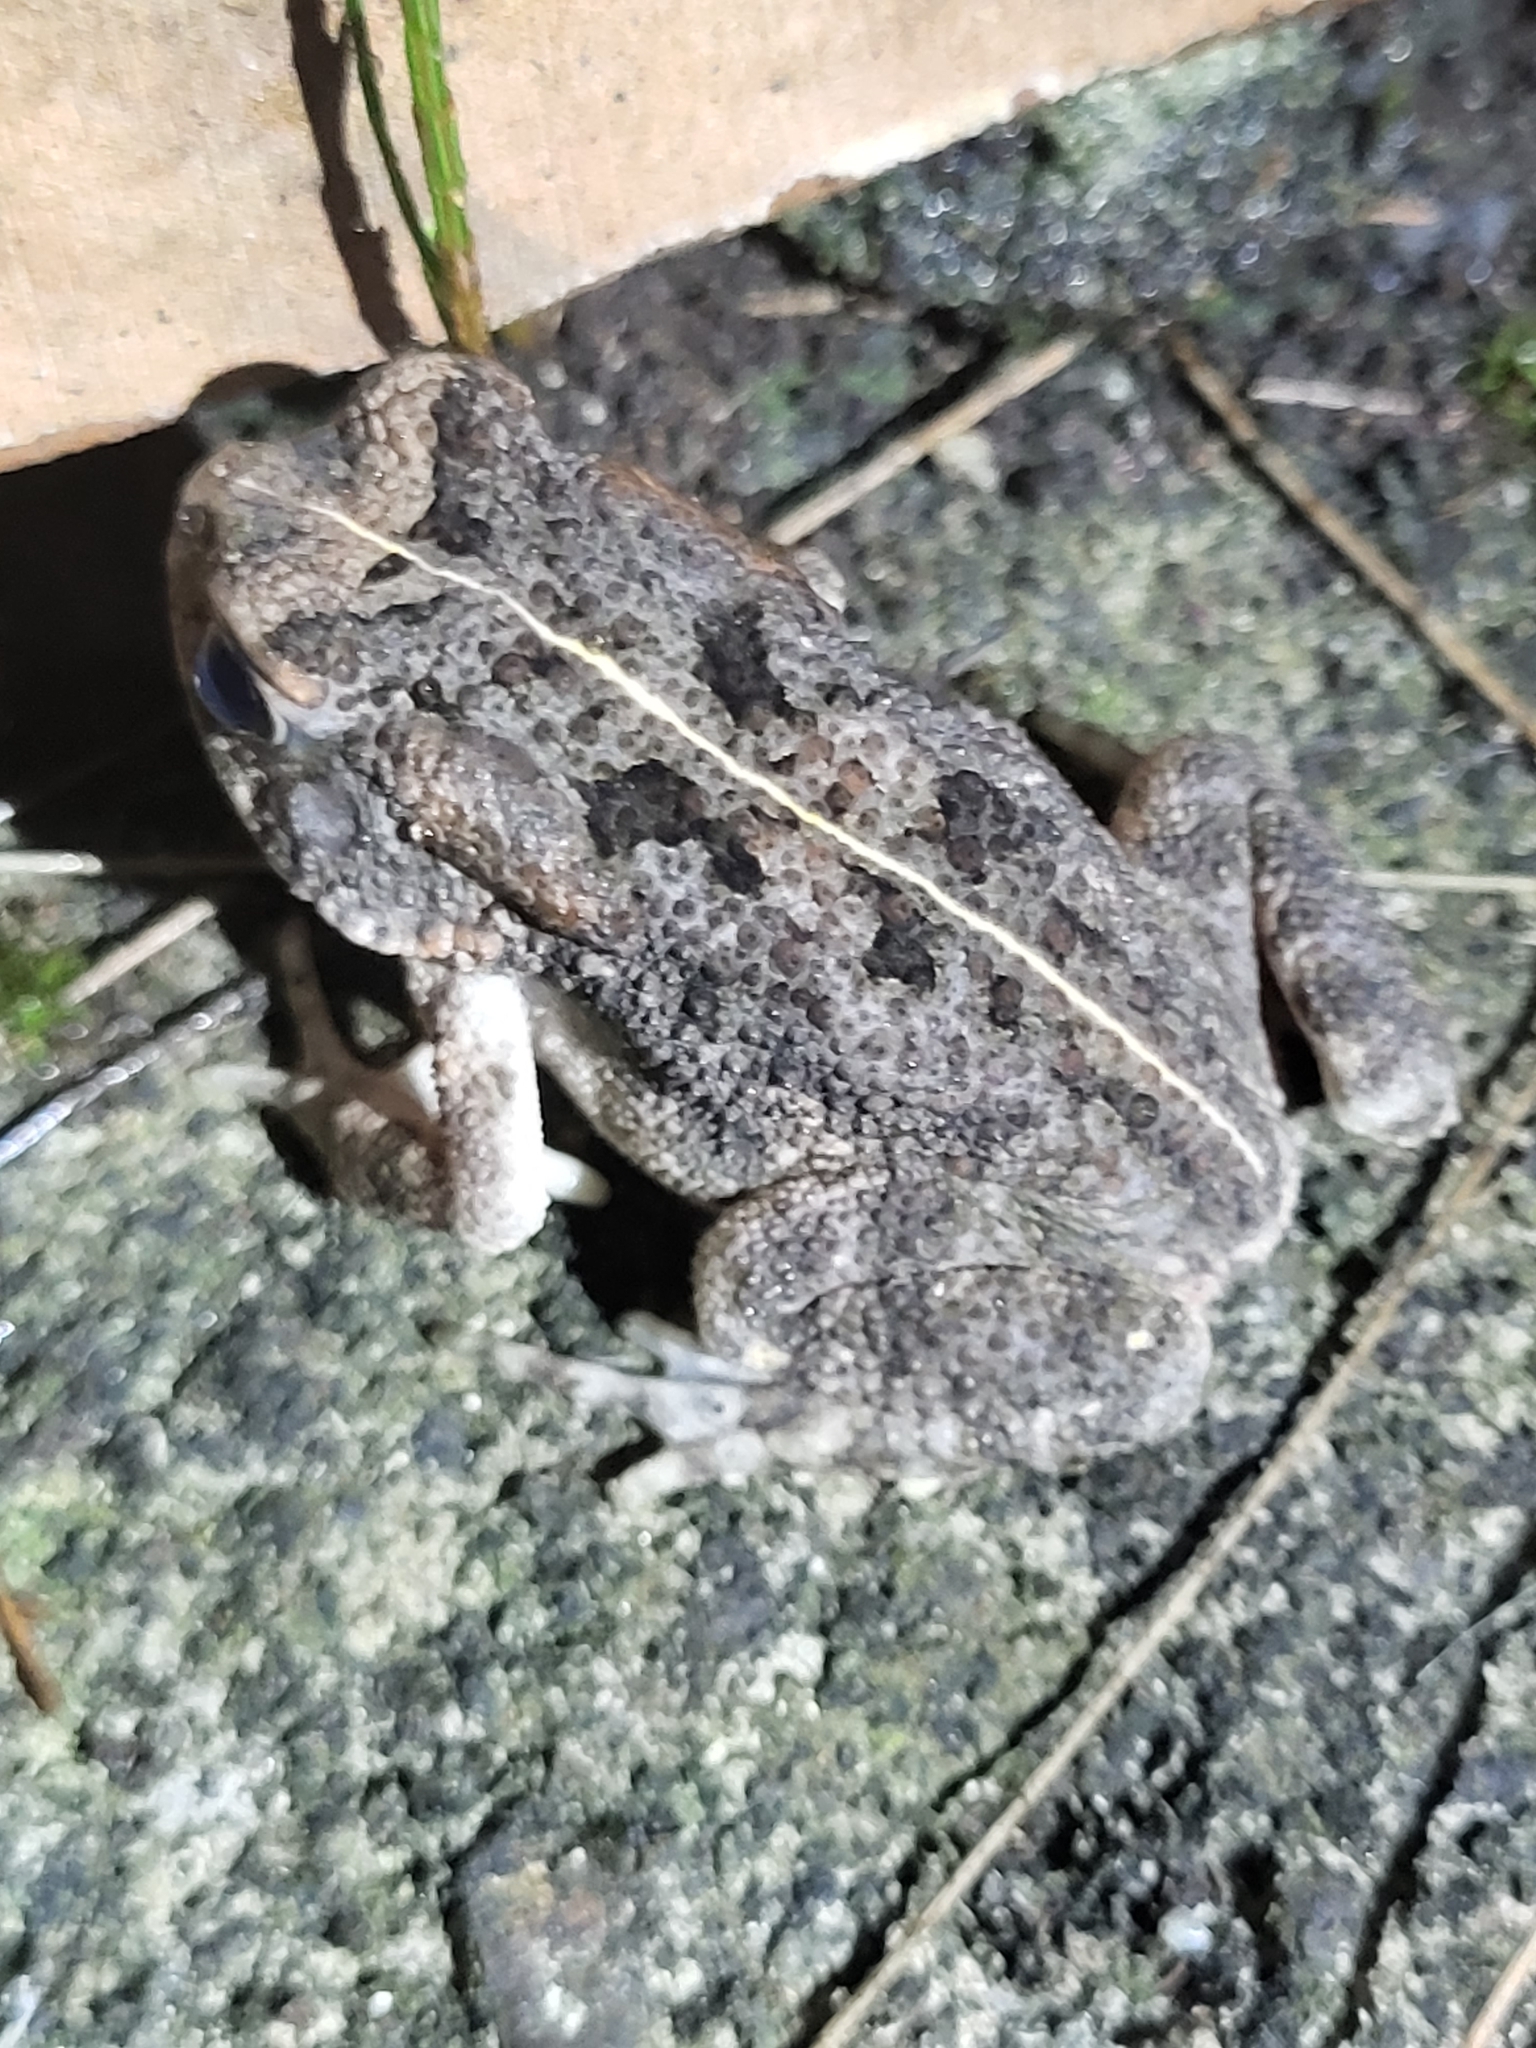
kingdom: Animalia
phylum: Chordata
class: Amphibia
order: Anura
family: Bufonidae
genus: Sclerophrys
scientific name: Sclerophrys gutturalis
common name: African common toad
